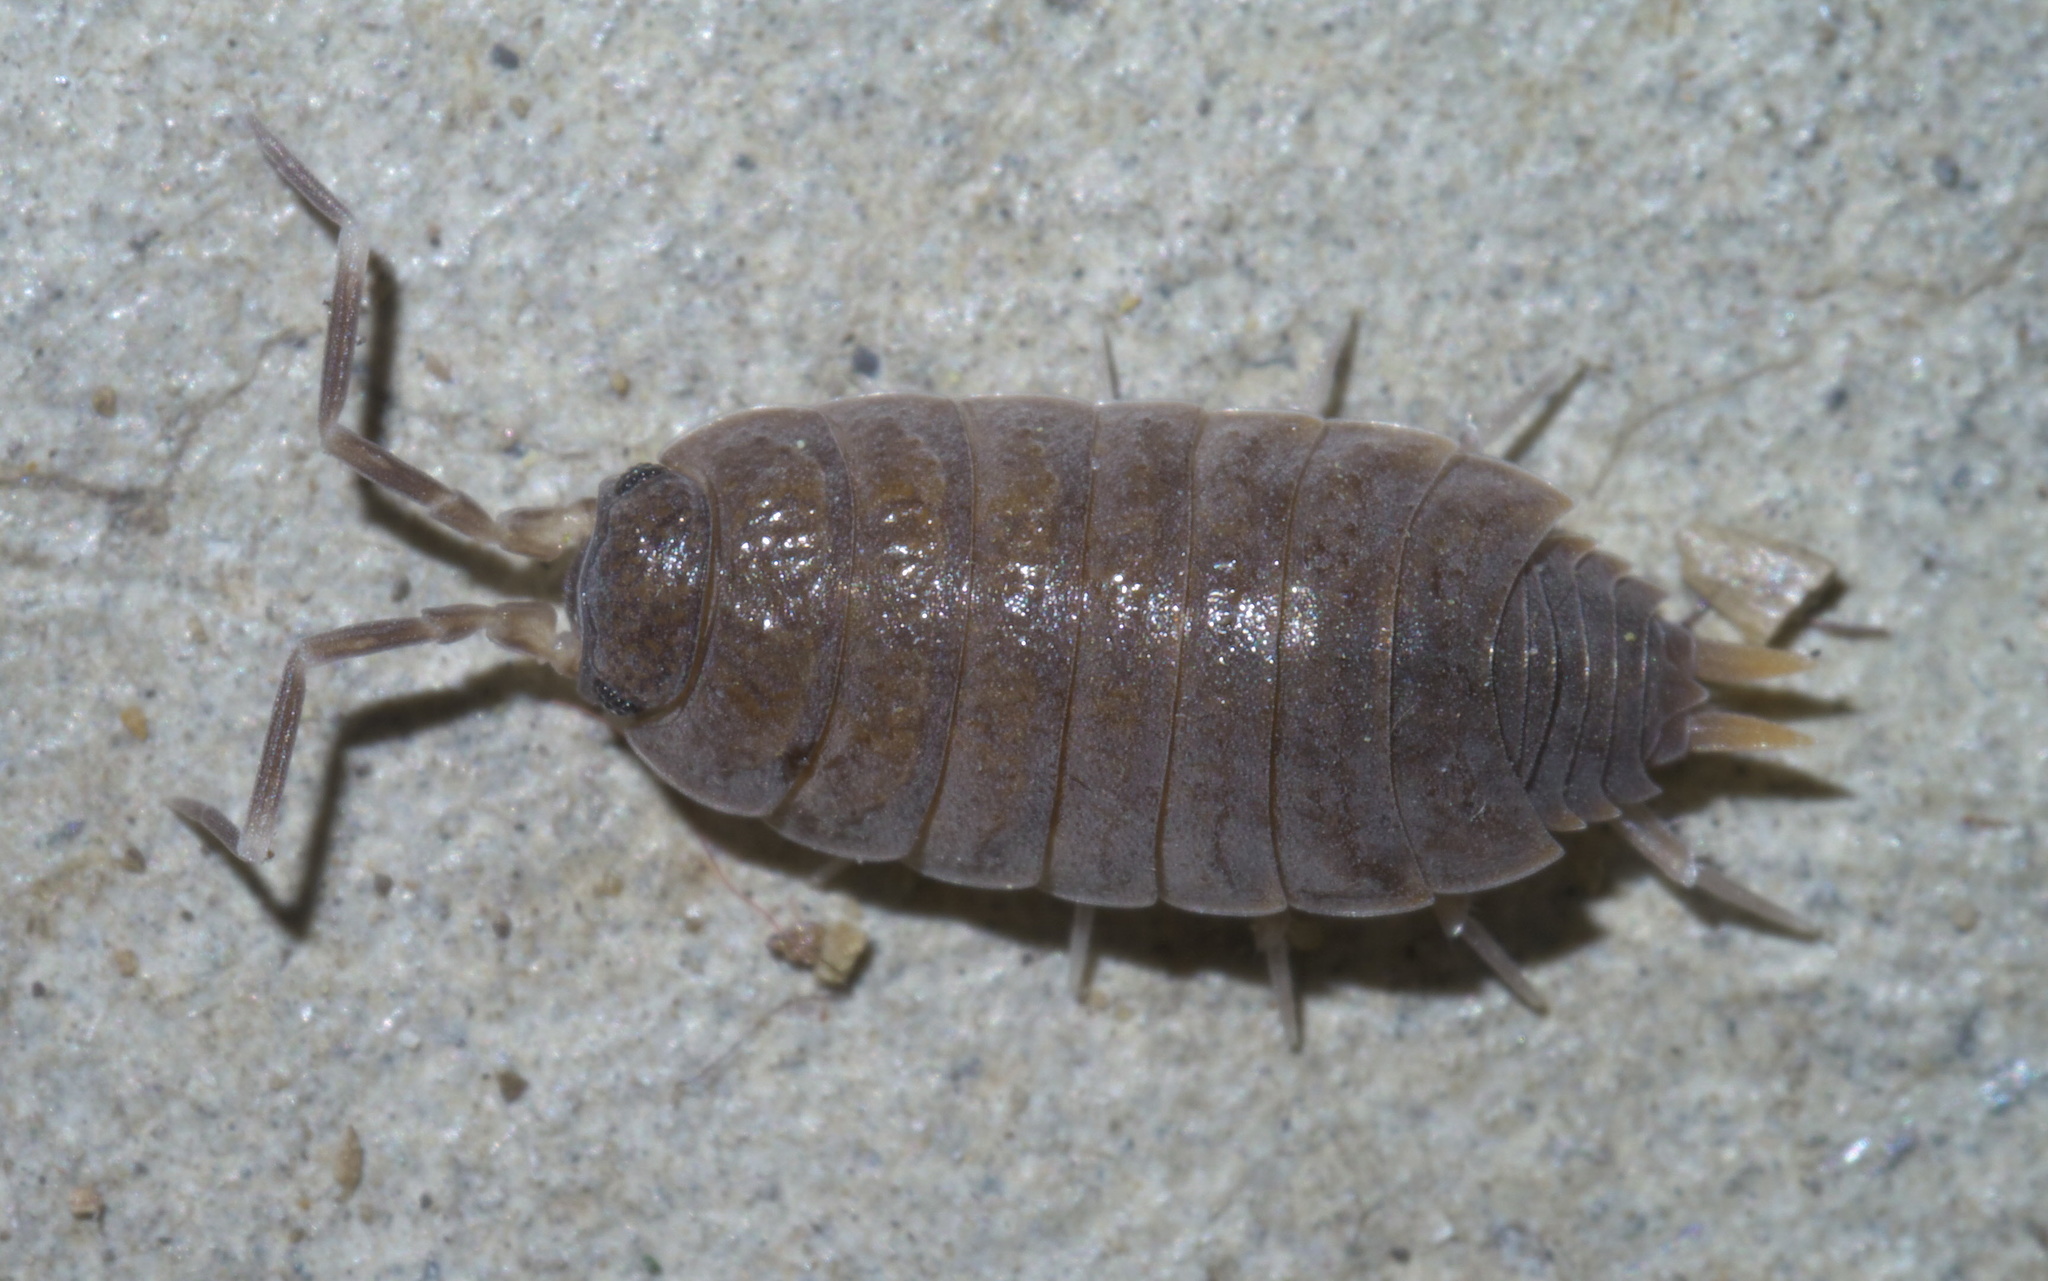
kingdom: Animalia
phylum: Arthropoda
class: Malacostraca
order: Isopoda
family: Porcellionidae
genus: Porcellionides
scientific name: Porcellionides pruinosus
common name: Plum woodlouse
